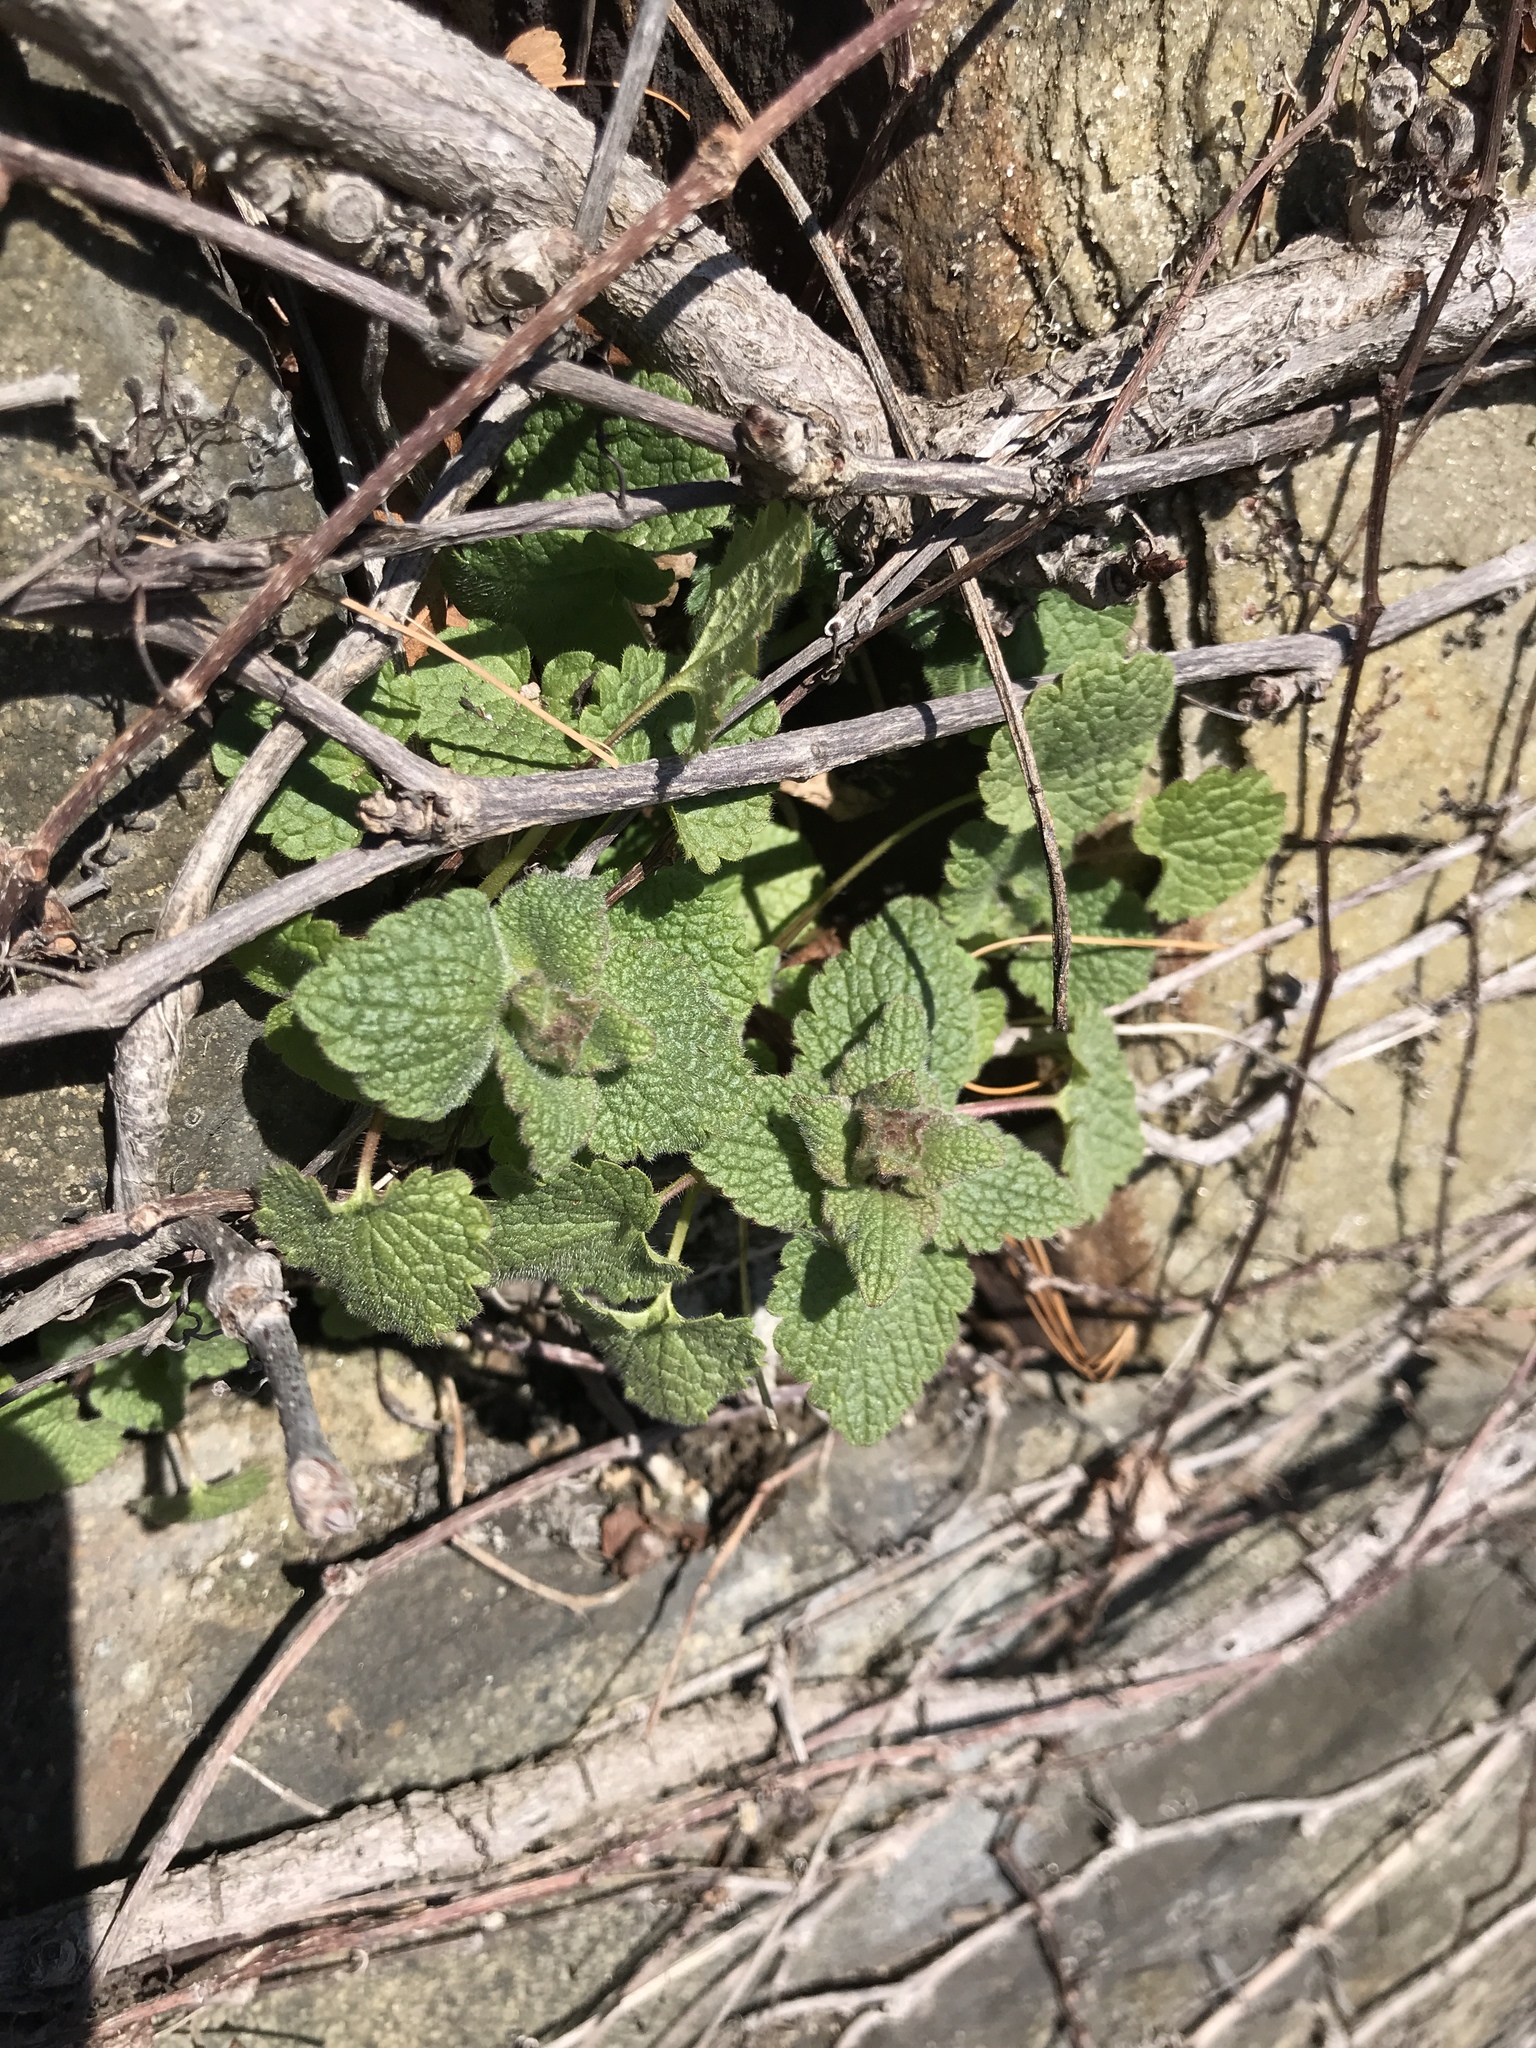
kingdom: Plantae
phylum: Tracheophyta
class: Magnoliopsida
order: Lamiales
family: Lamiaceae
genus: Lamium
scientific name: Lamium purpureum
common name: Red dead-nettle
